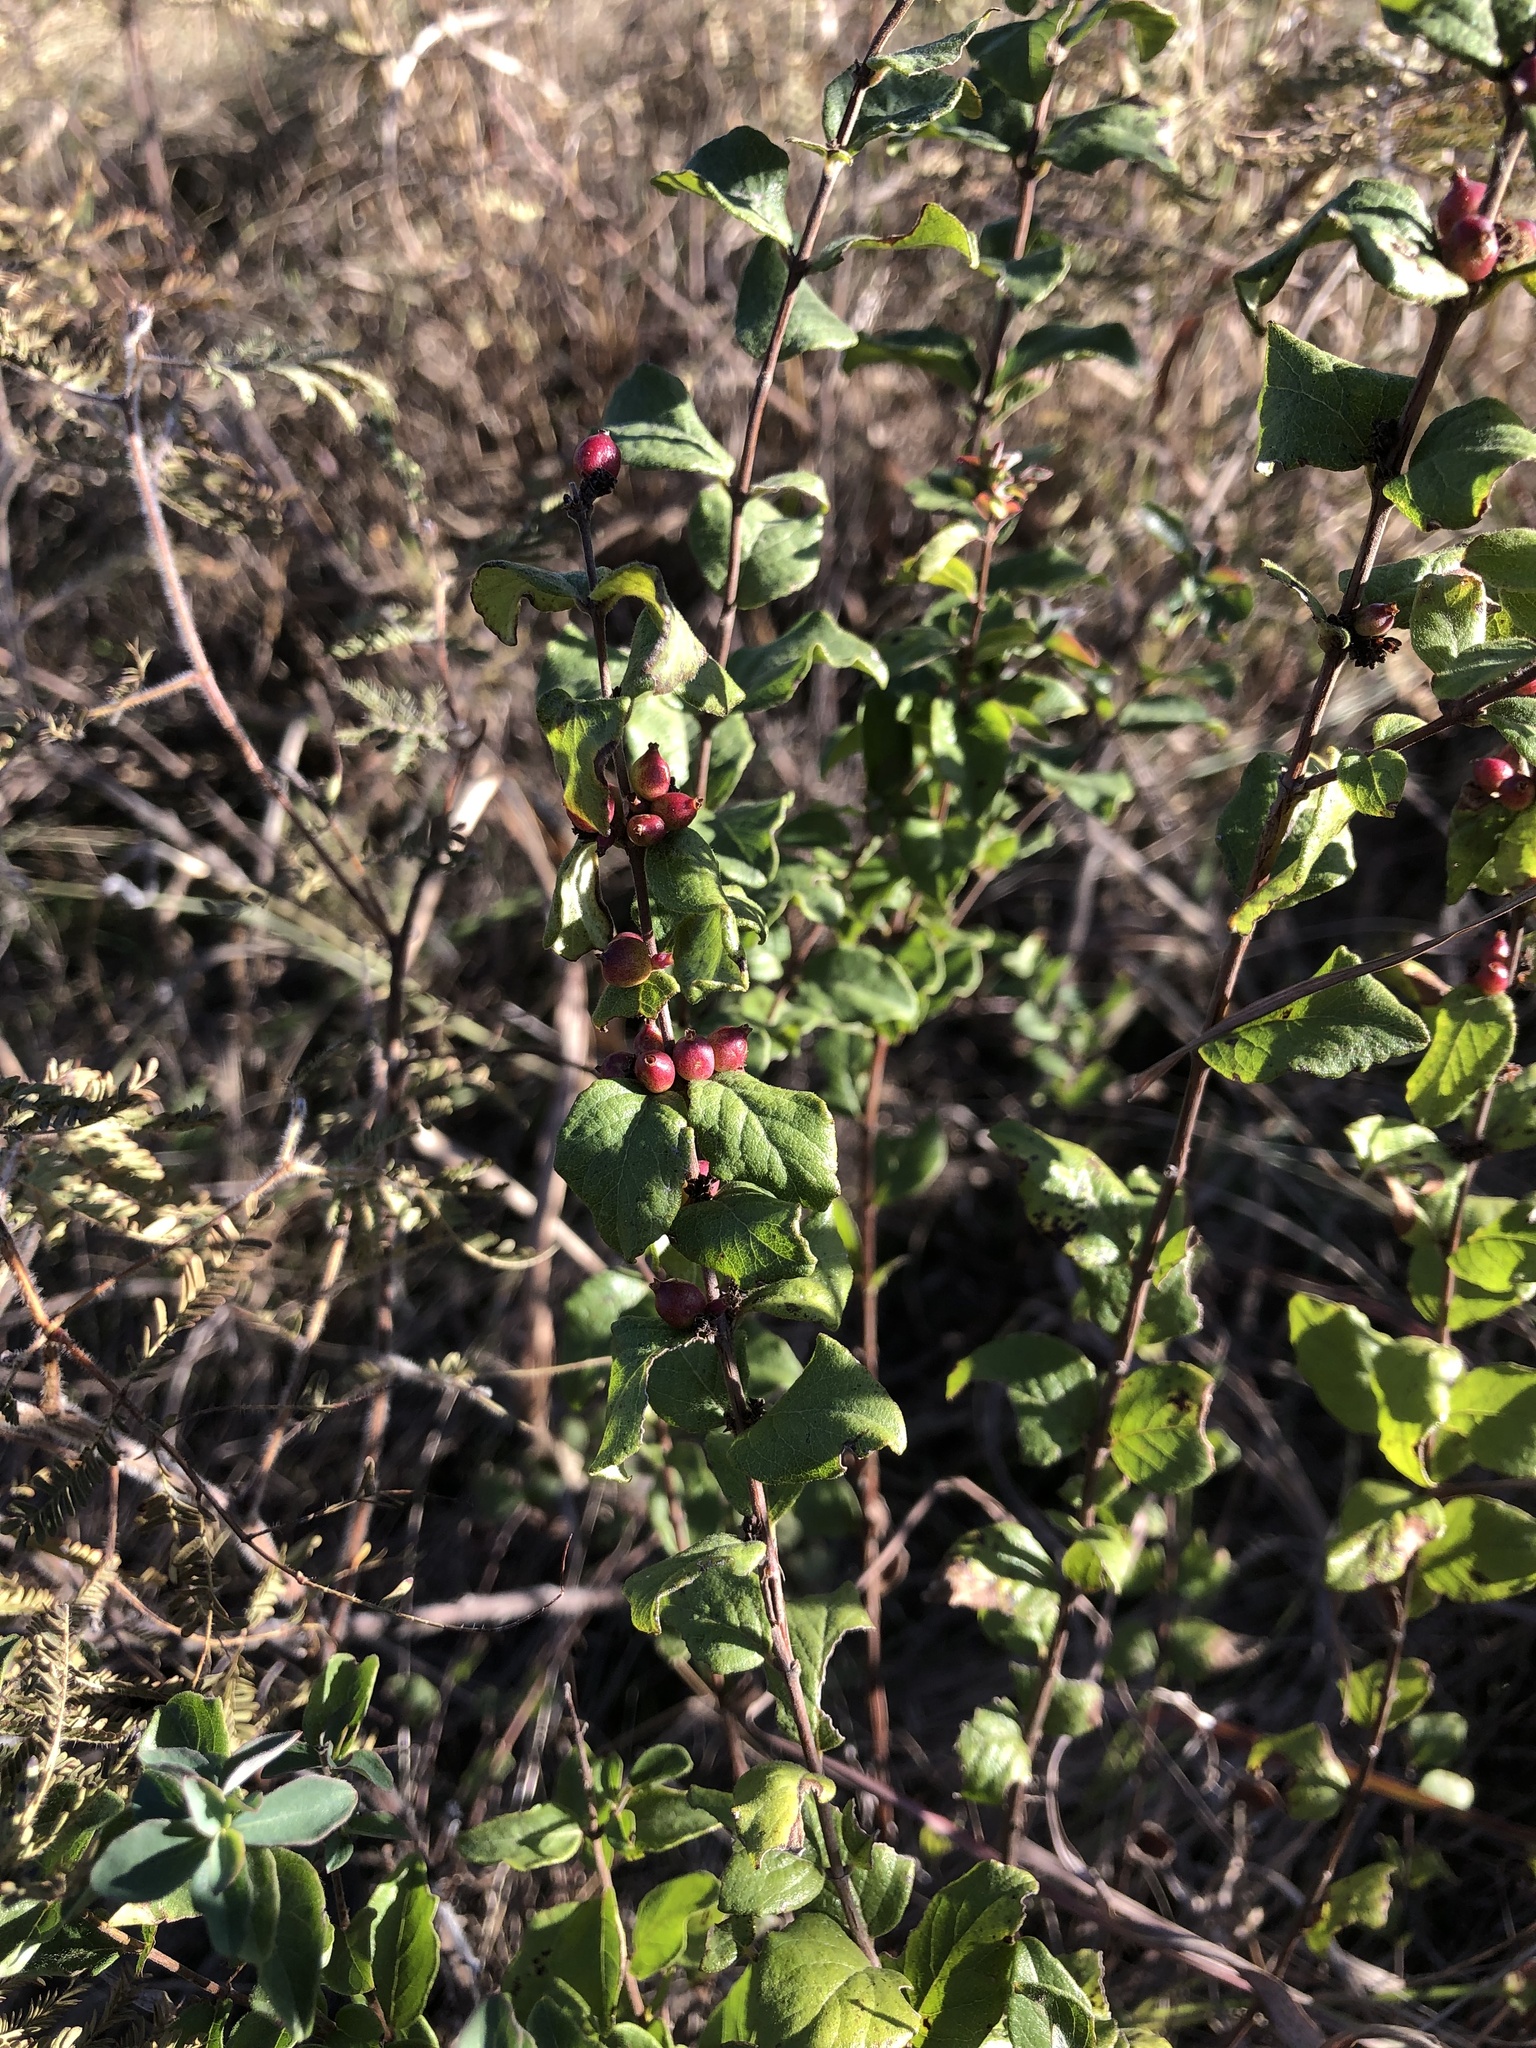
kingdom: Plantae
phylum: Tracheophyta
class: Magnoliopsida
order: Dipsacales
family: Caprifoliaceae
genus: Symphoricarpos
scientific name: Symphoricarpos orbiculatus
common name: Coralberry
